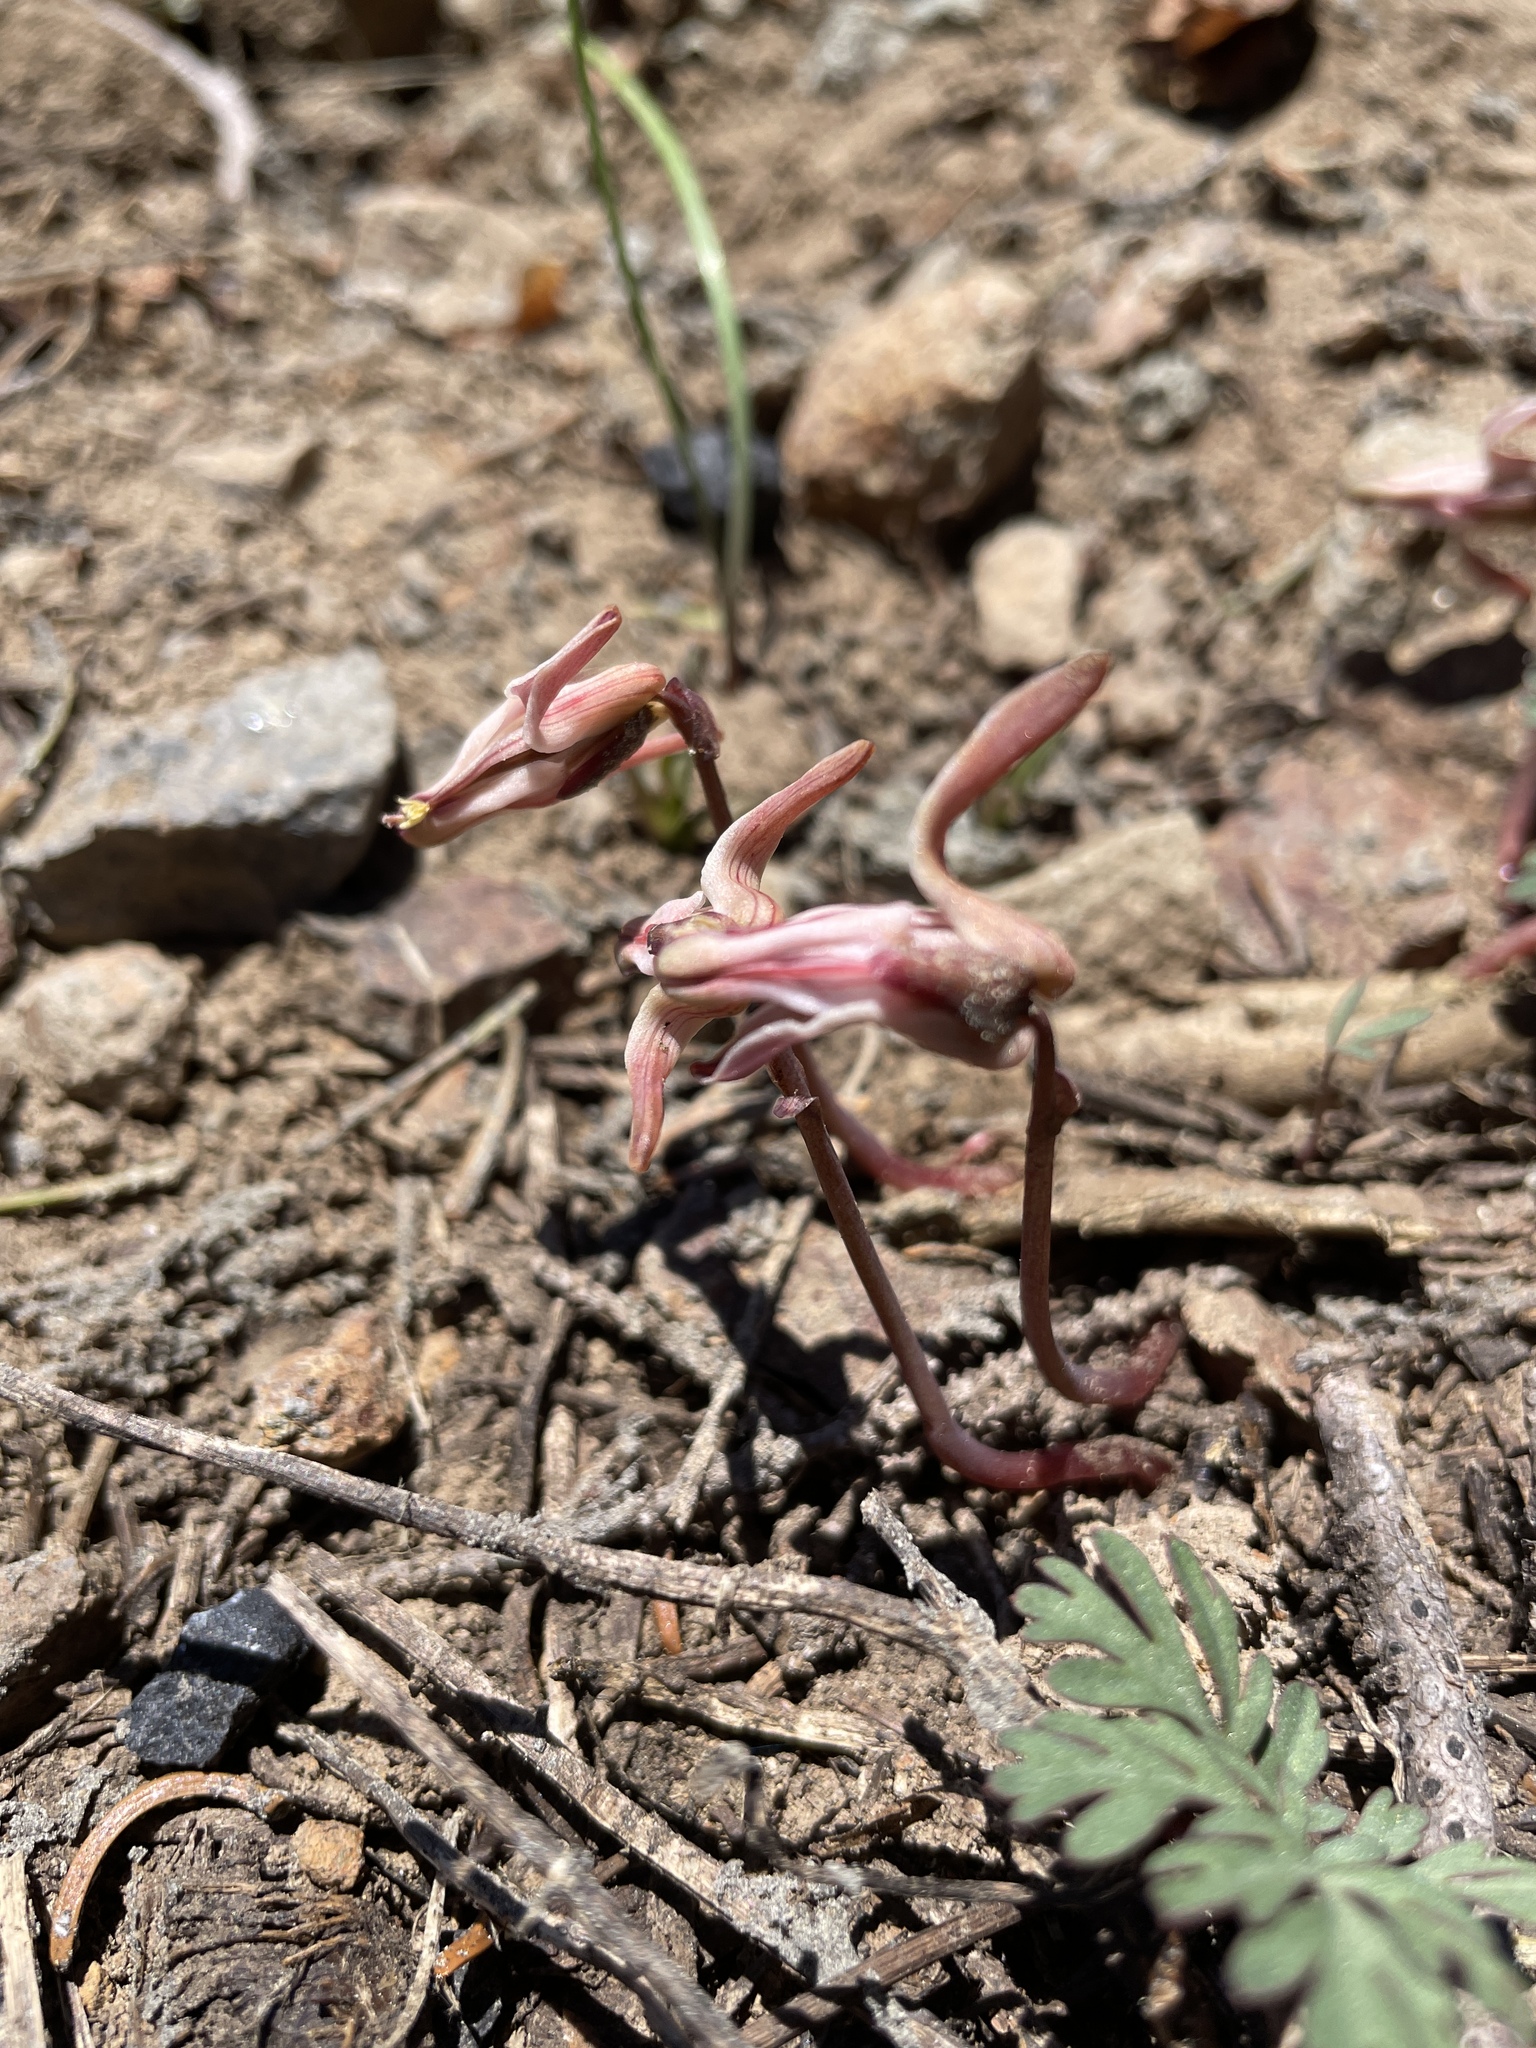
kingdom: Plantae
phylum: Tracheophyta
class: Magnoliopsida
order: Ranunculales
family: Papaveraceae
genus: Dicentra
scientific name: Dicentra uniflora
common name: Steer's-head
